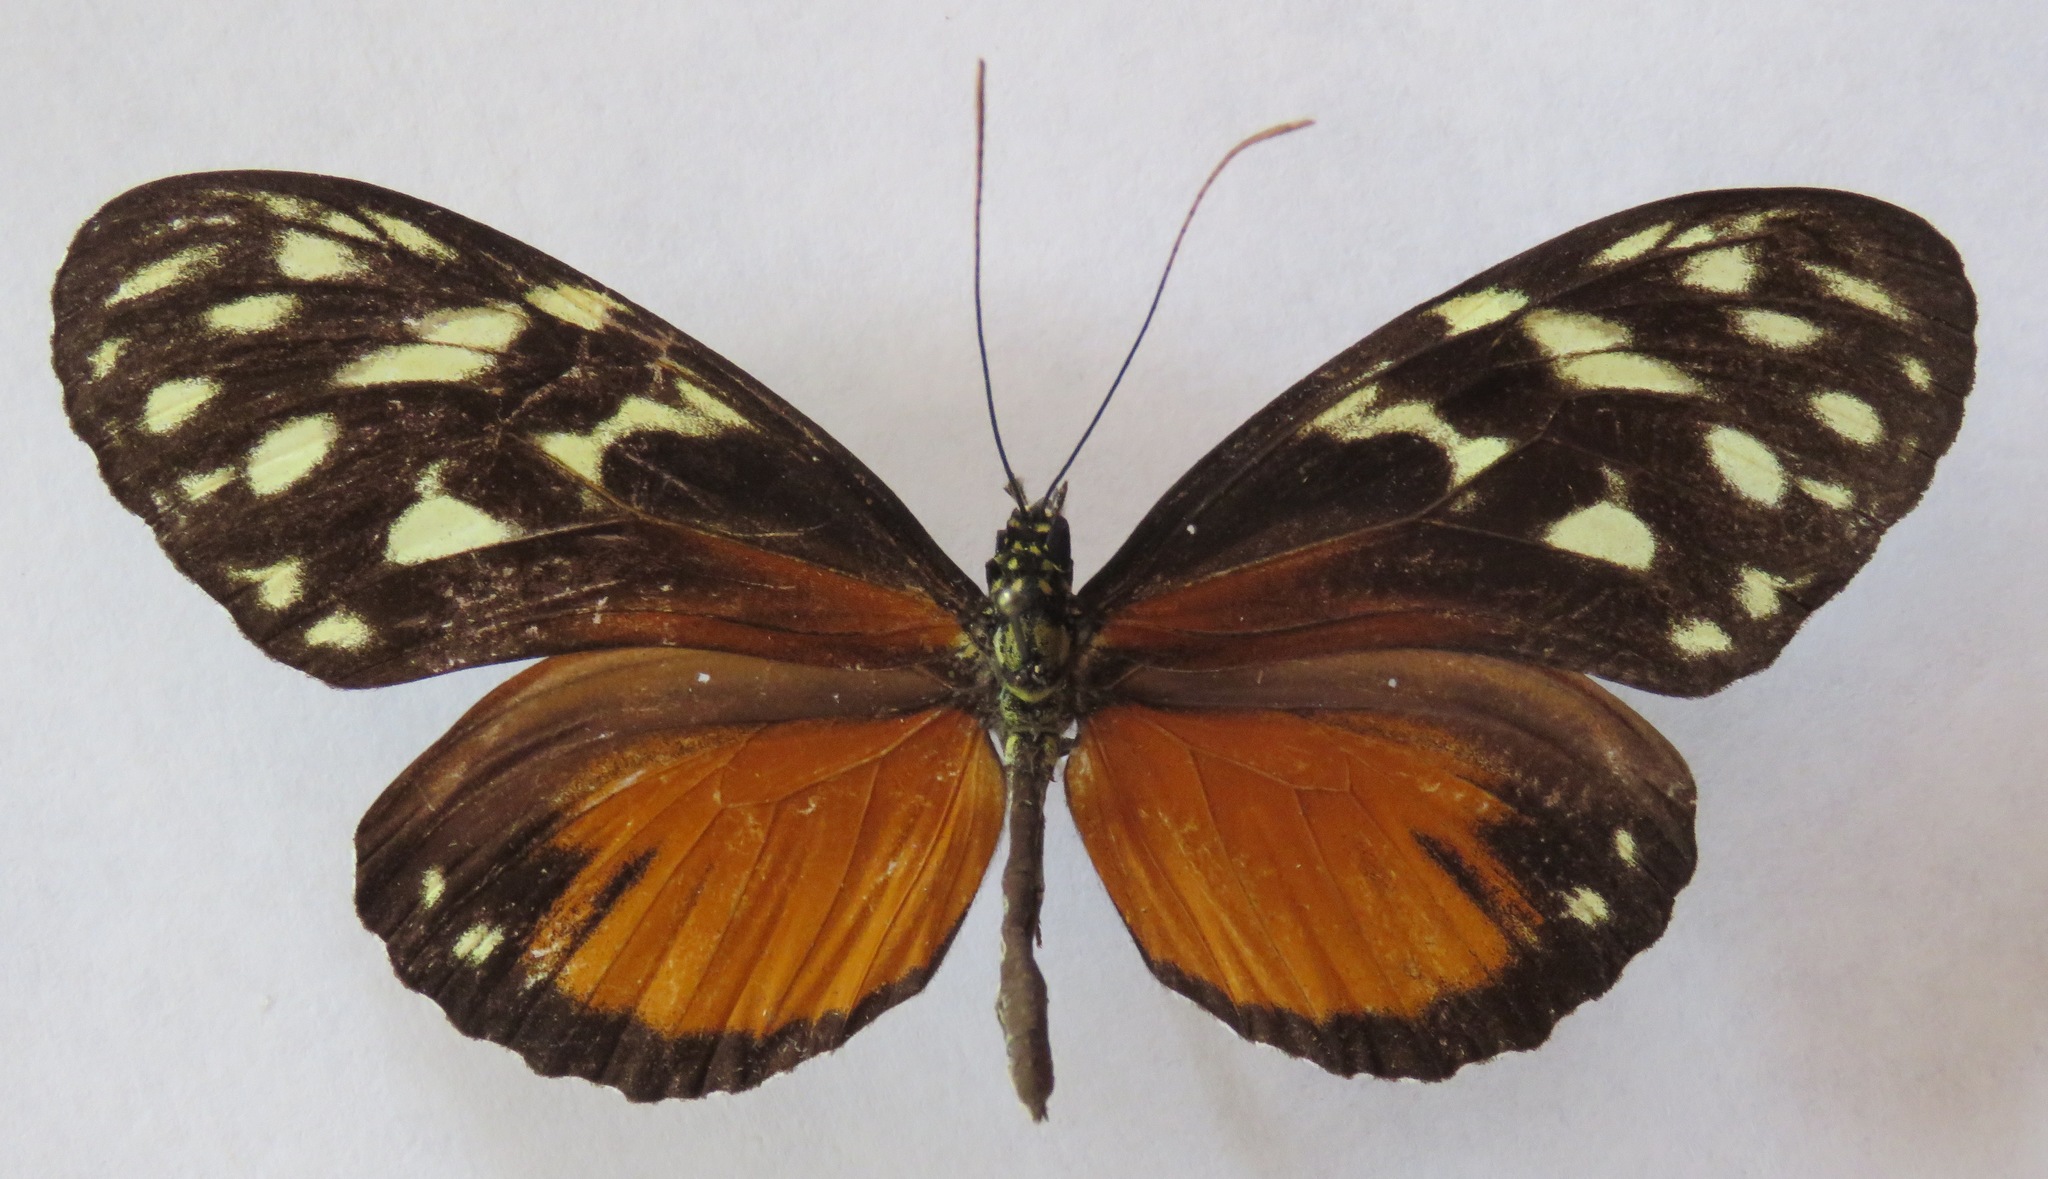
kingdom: Animalia
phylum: Arthropoda
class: Insecta
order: Lepidoptera
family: Nymphalidae
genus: Heliconius
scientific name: Heliconius hecale
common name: Tiger longwing
